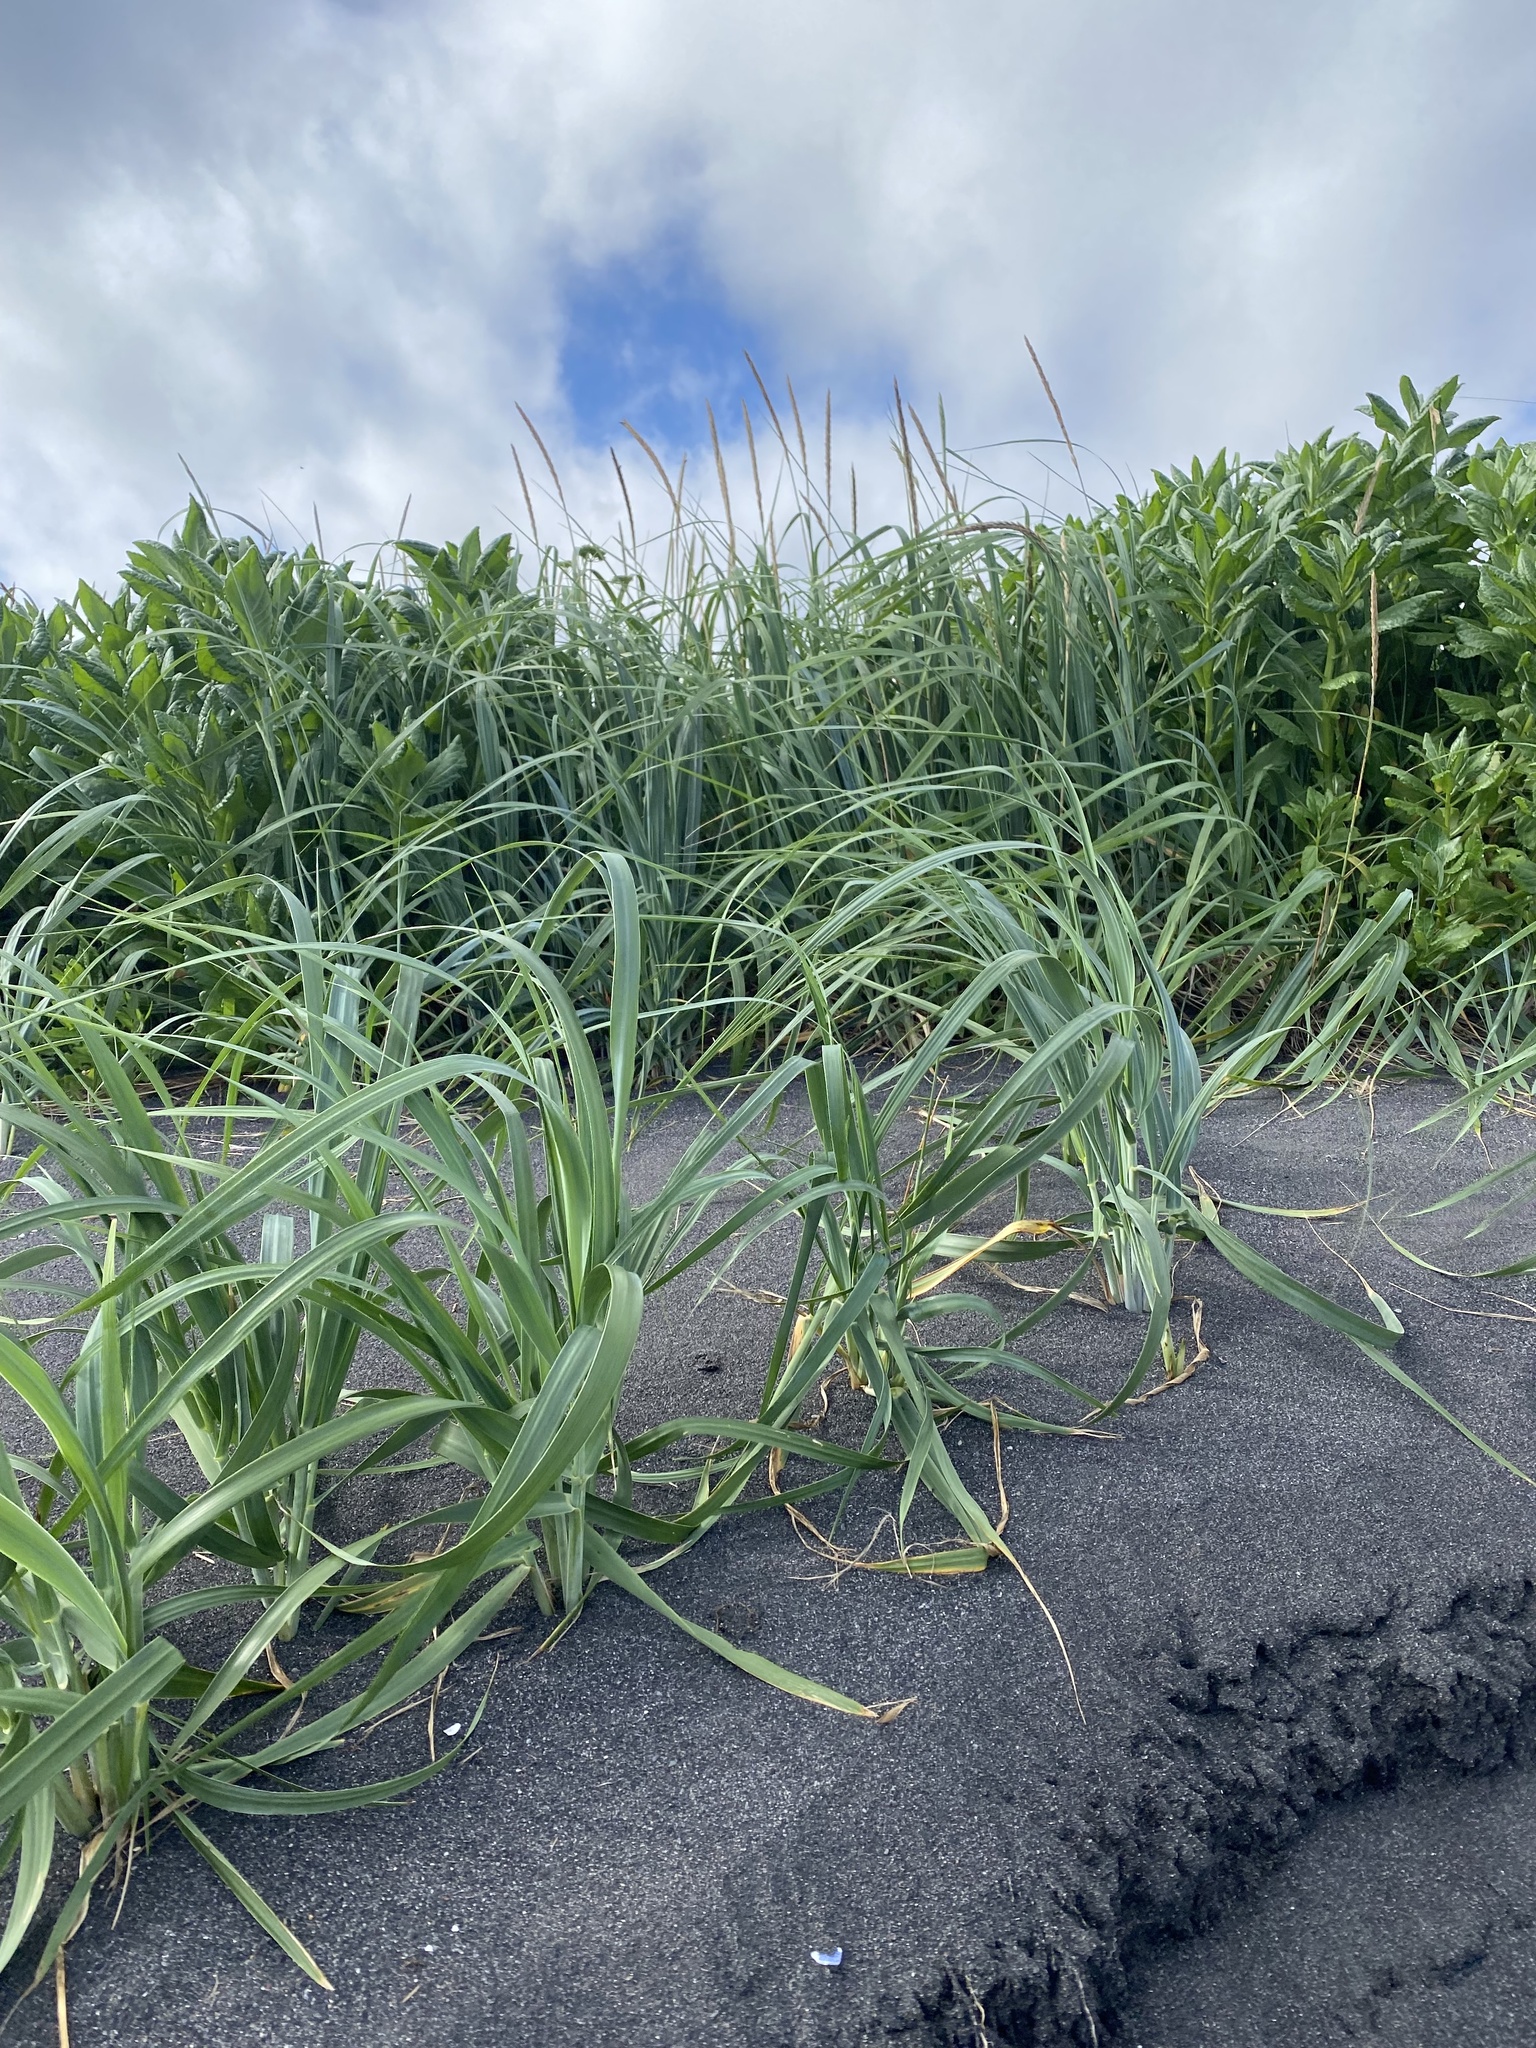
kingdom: Plantae
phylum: Tracheophyta
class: Liliopsida
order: Poales
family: Poaceae
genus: Leymus
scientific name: Leymus mollis
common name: American dune grass
